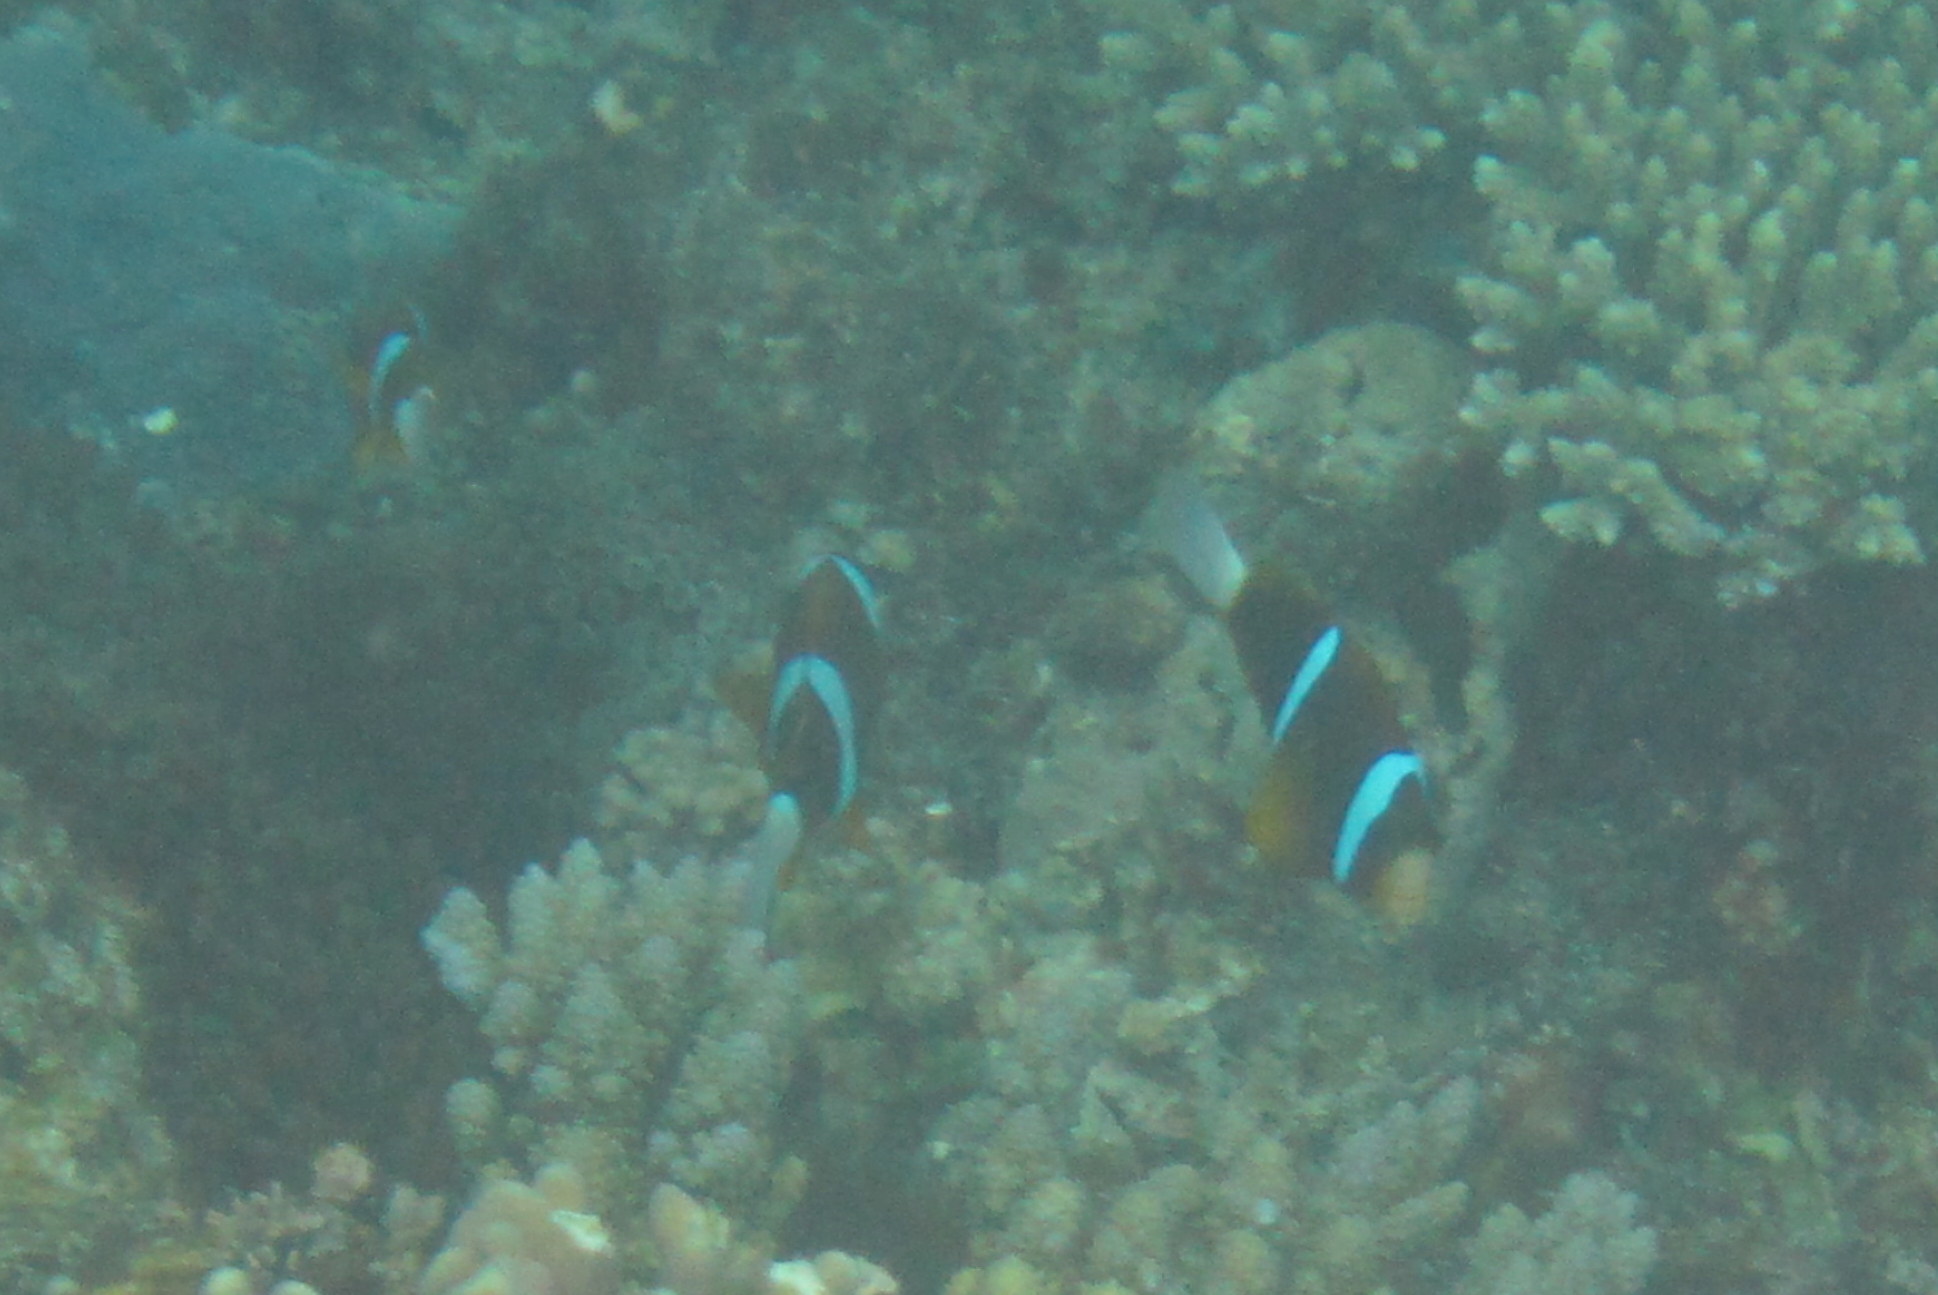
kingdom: Animalia
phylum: Chordata
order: Perciformes
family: Pomacentridae
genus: Amphiprion
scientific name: Amphiprion akindynos
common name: Barrier reef anemonefish
